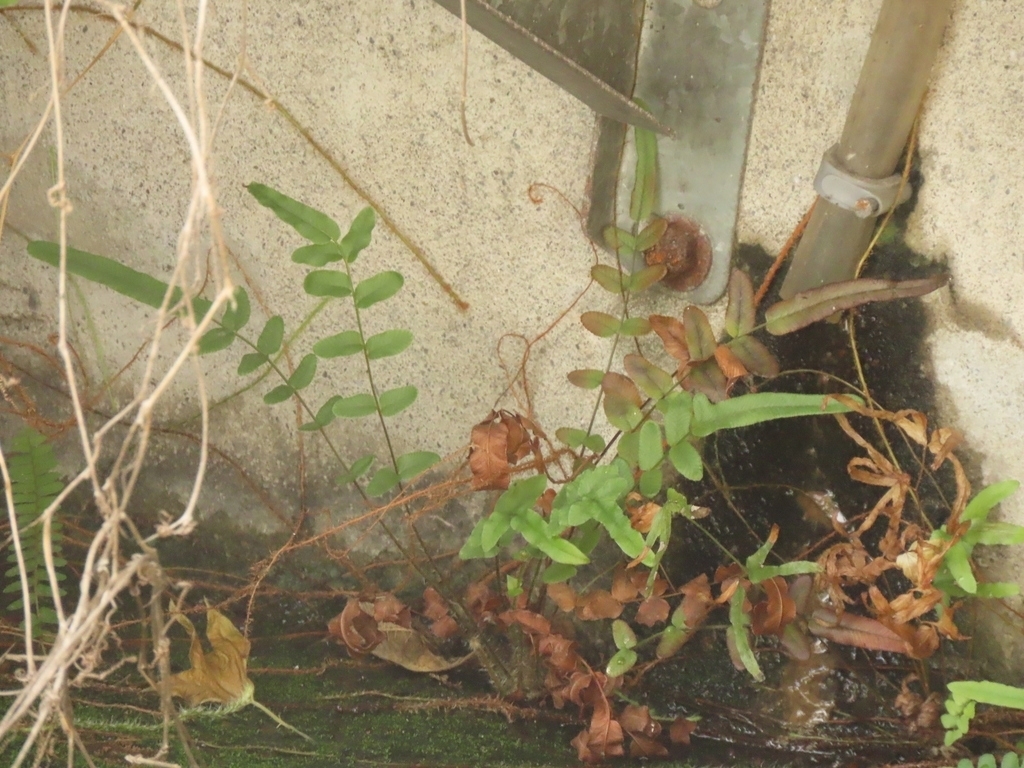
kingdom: Plantae
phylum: Tracheophyta
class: Polypodiopsida
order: Polypodiales
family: Pteridaceae
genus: Pteris
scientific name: Pteris vittata
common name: Ladder brake
